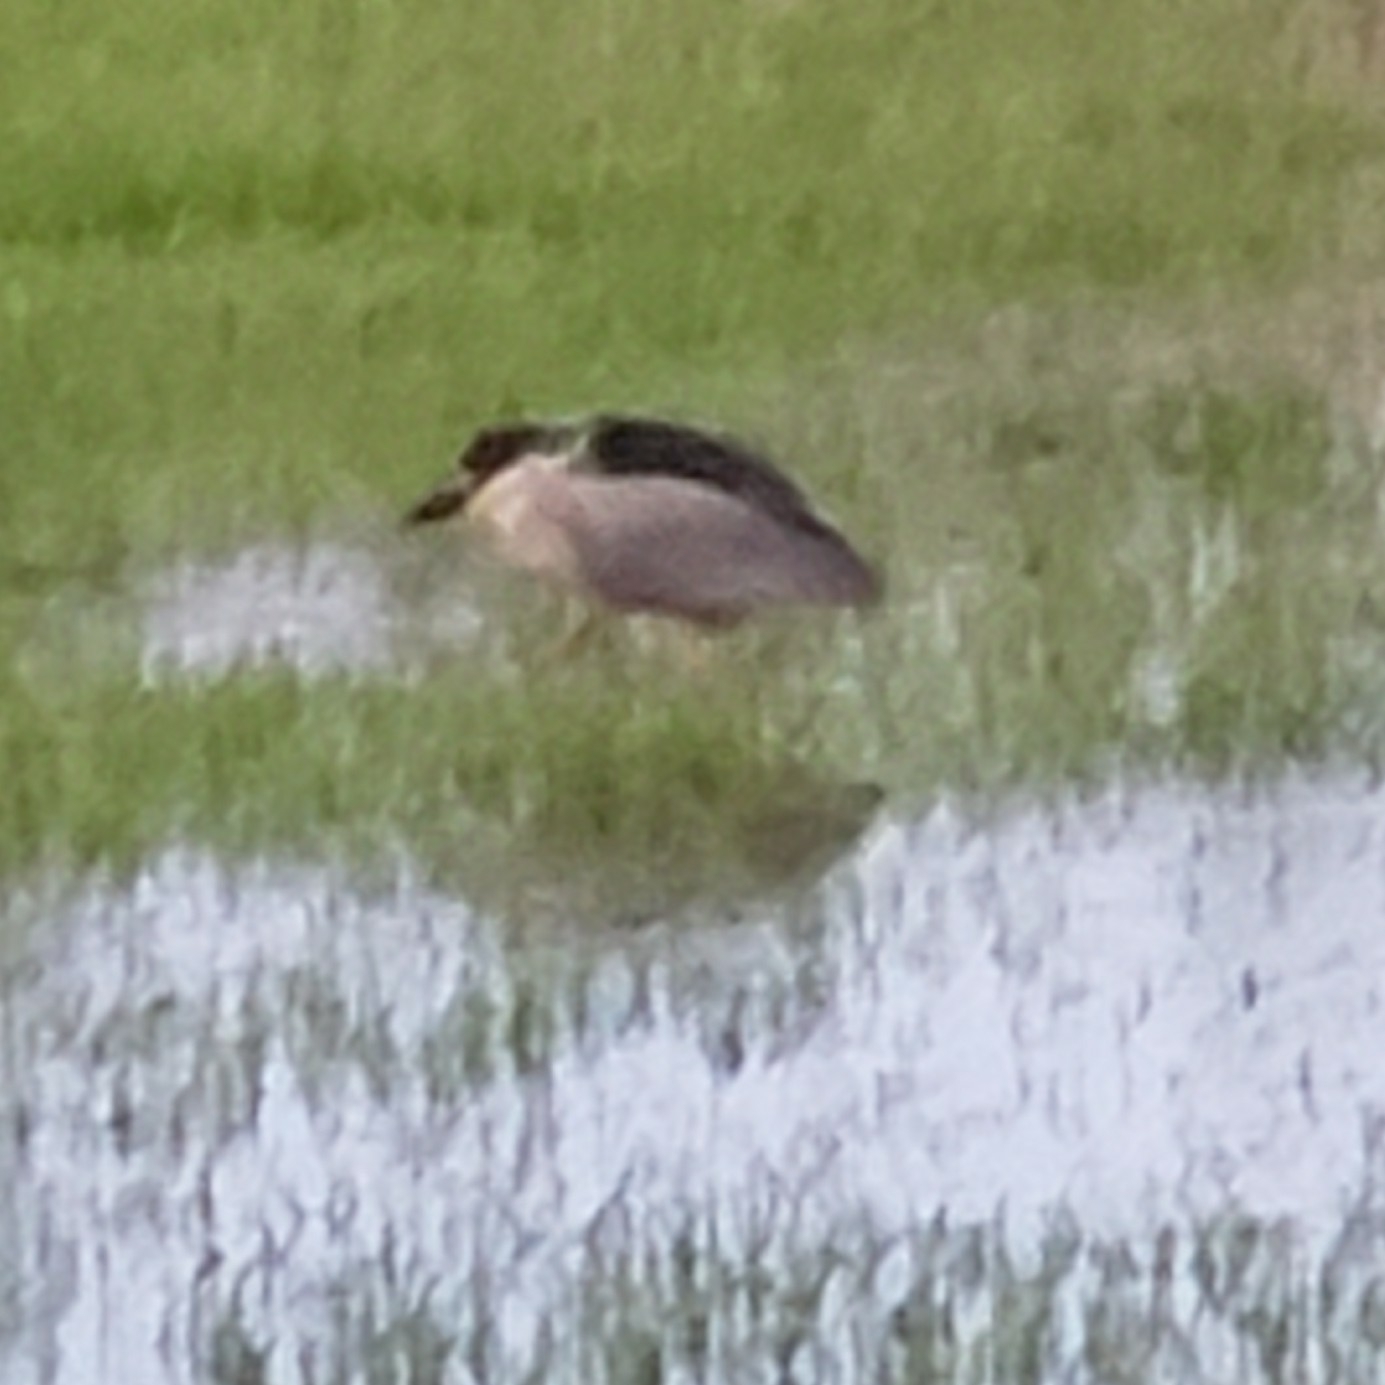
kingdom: Animalia
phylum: Chordata
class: Aves
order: Pelecaniformes
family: Ardeidae
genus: Nycticorax
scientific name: Nycticorax nycticorax
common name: Black-crowned night heron
